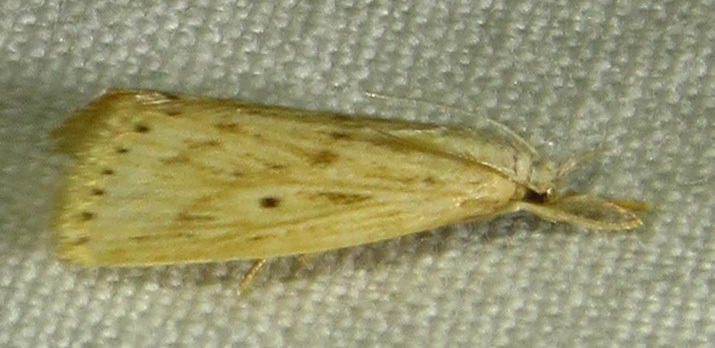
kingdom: Animalia
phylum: Arthropoda
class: Insecta
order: Lepidoptera
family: Crambidae
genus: Diatraea
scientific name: Diatraea lisetta
